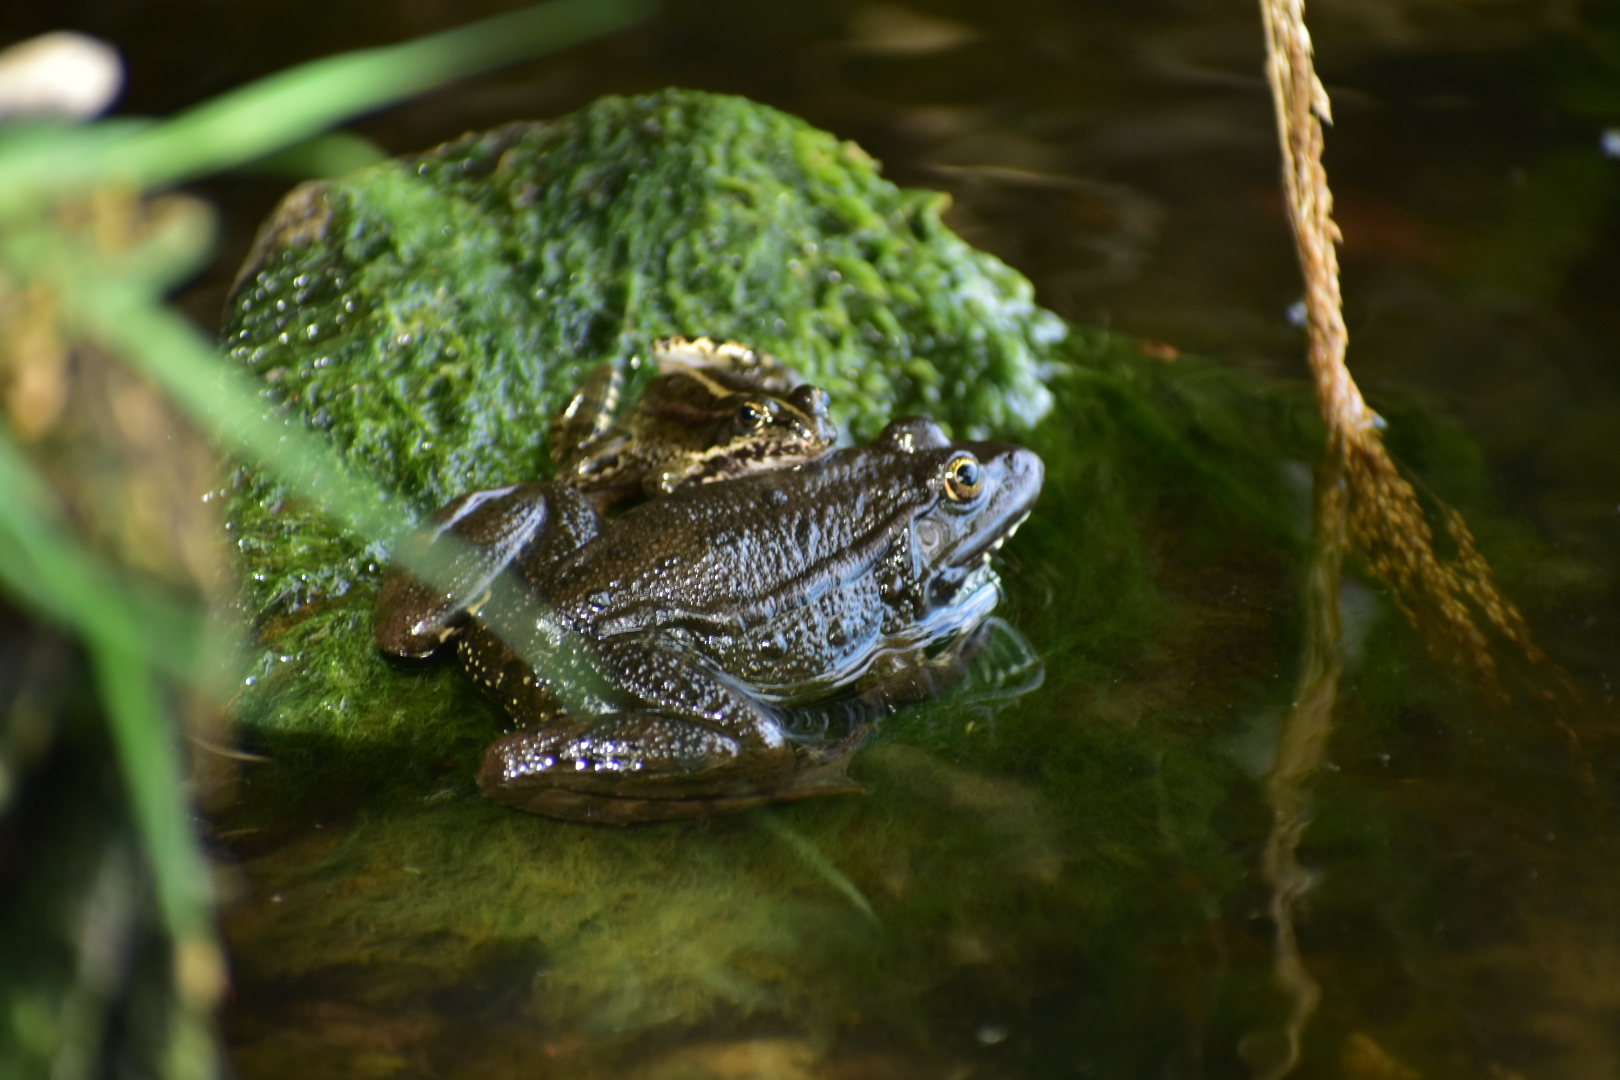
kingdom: Animalia
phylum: Chordata
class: Amphibia
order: Anura
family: Ranidae
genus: Pelophylax
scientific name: Pelophylax ridibundus
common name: Marsh frog
